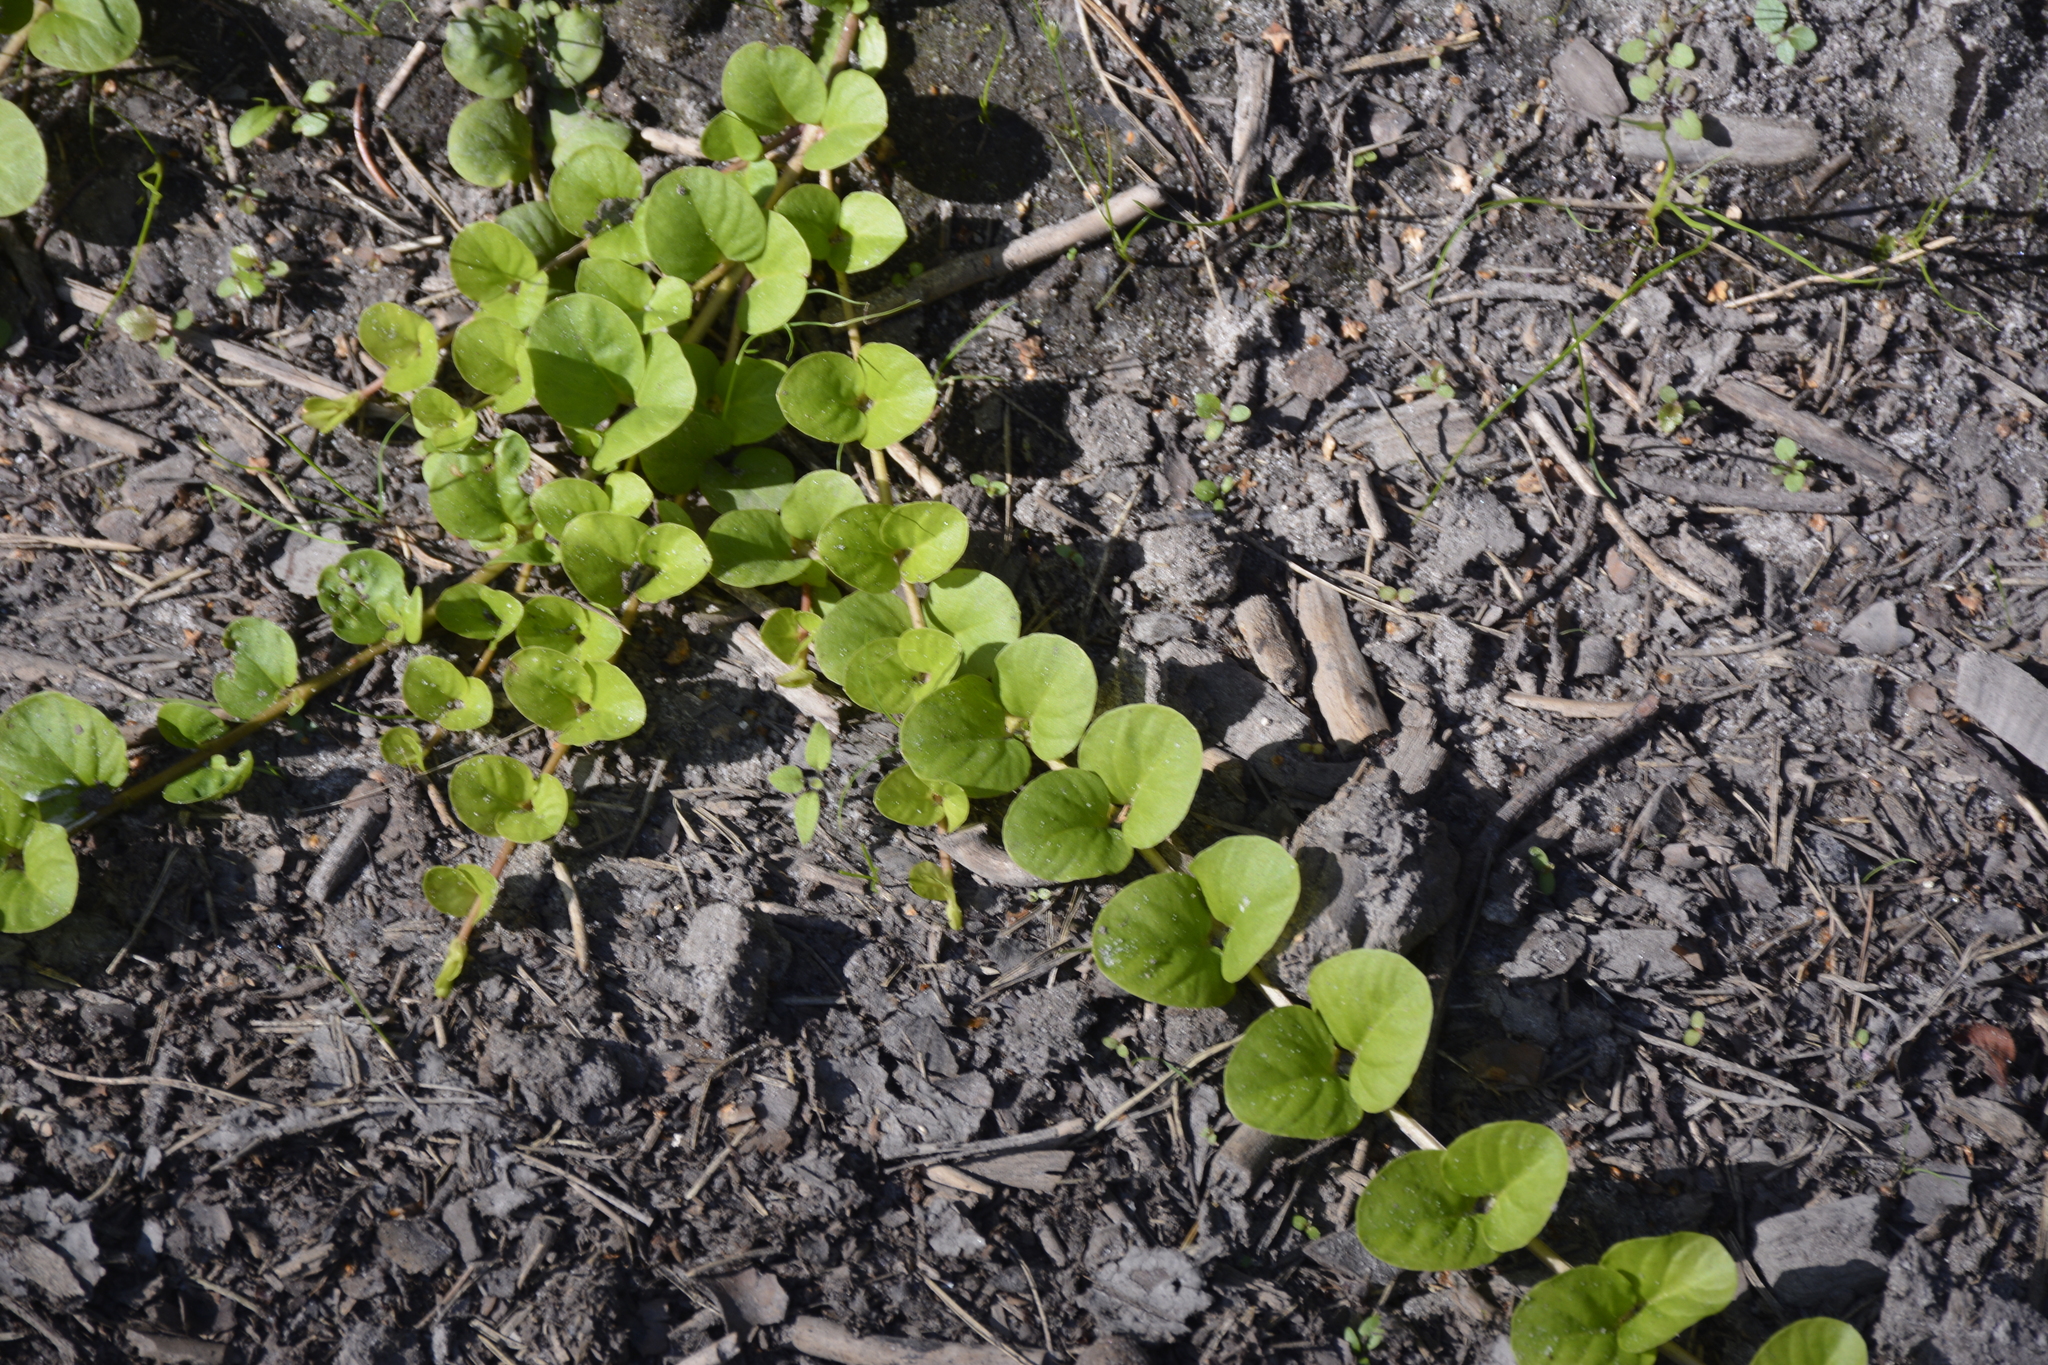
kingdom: Plantae
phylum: Tracheophyta
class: Magnoliopsida
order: Ericales
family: Primulaceae
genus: Lysimachia
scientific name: Lysimachia nummularia
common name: Moneywort
